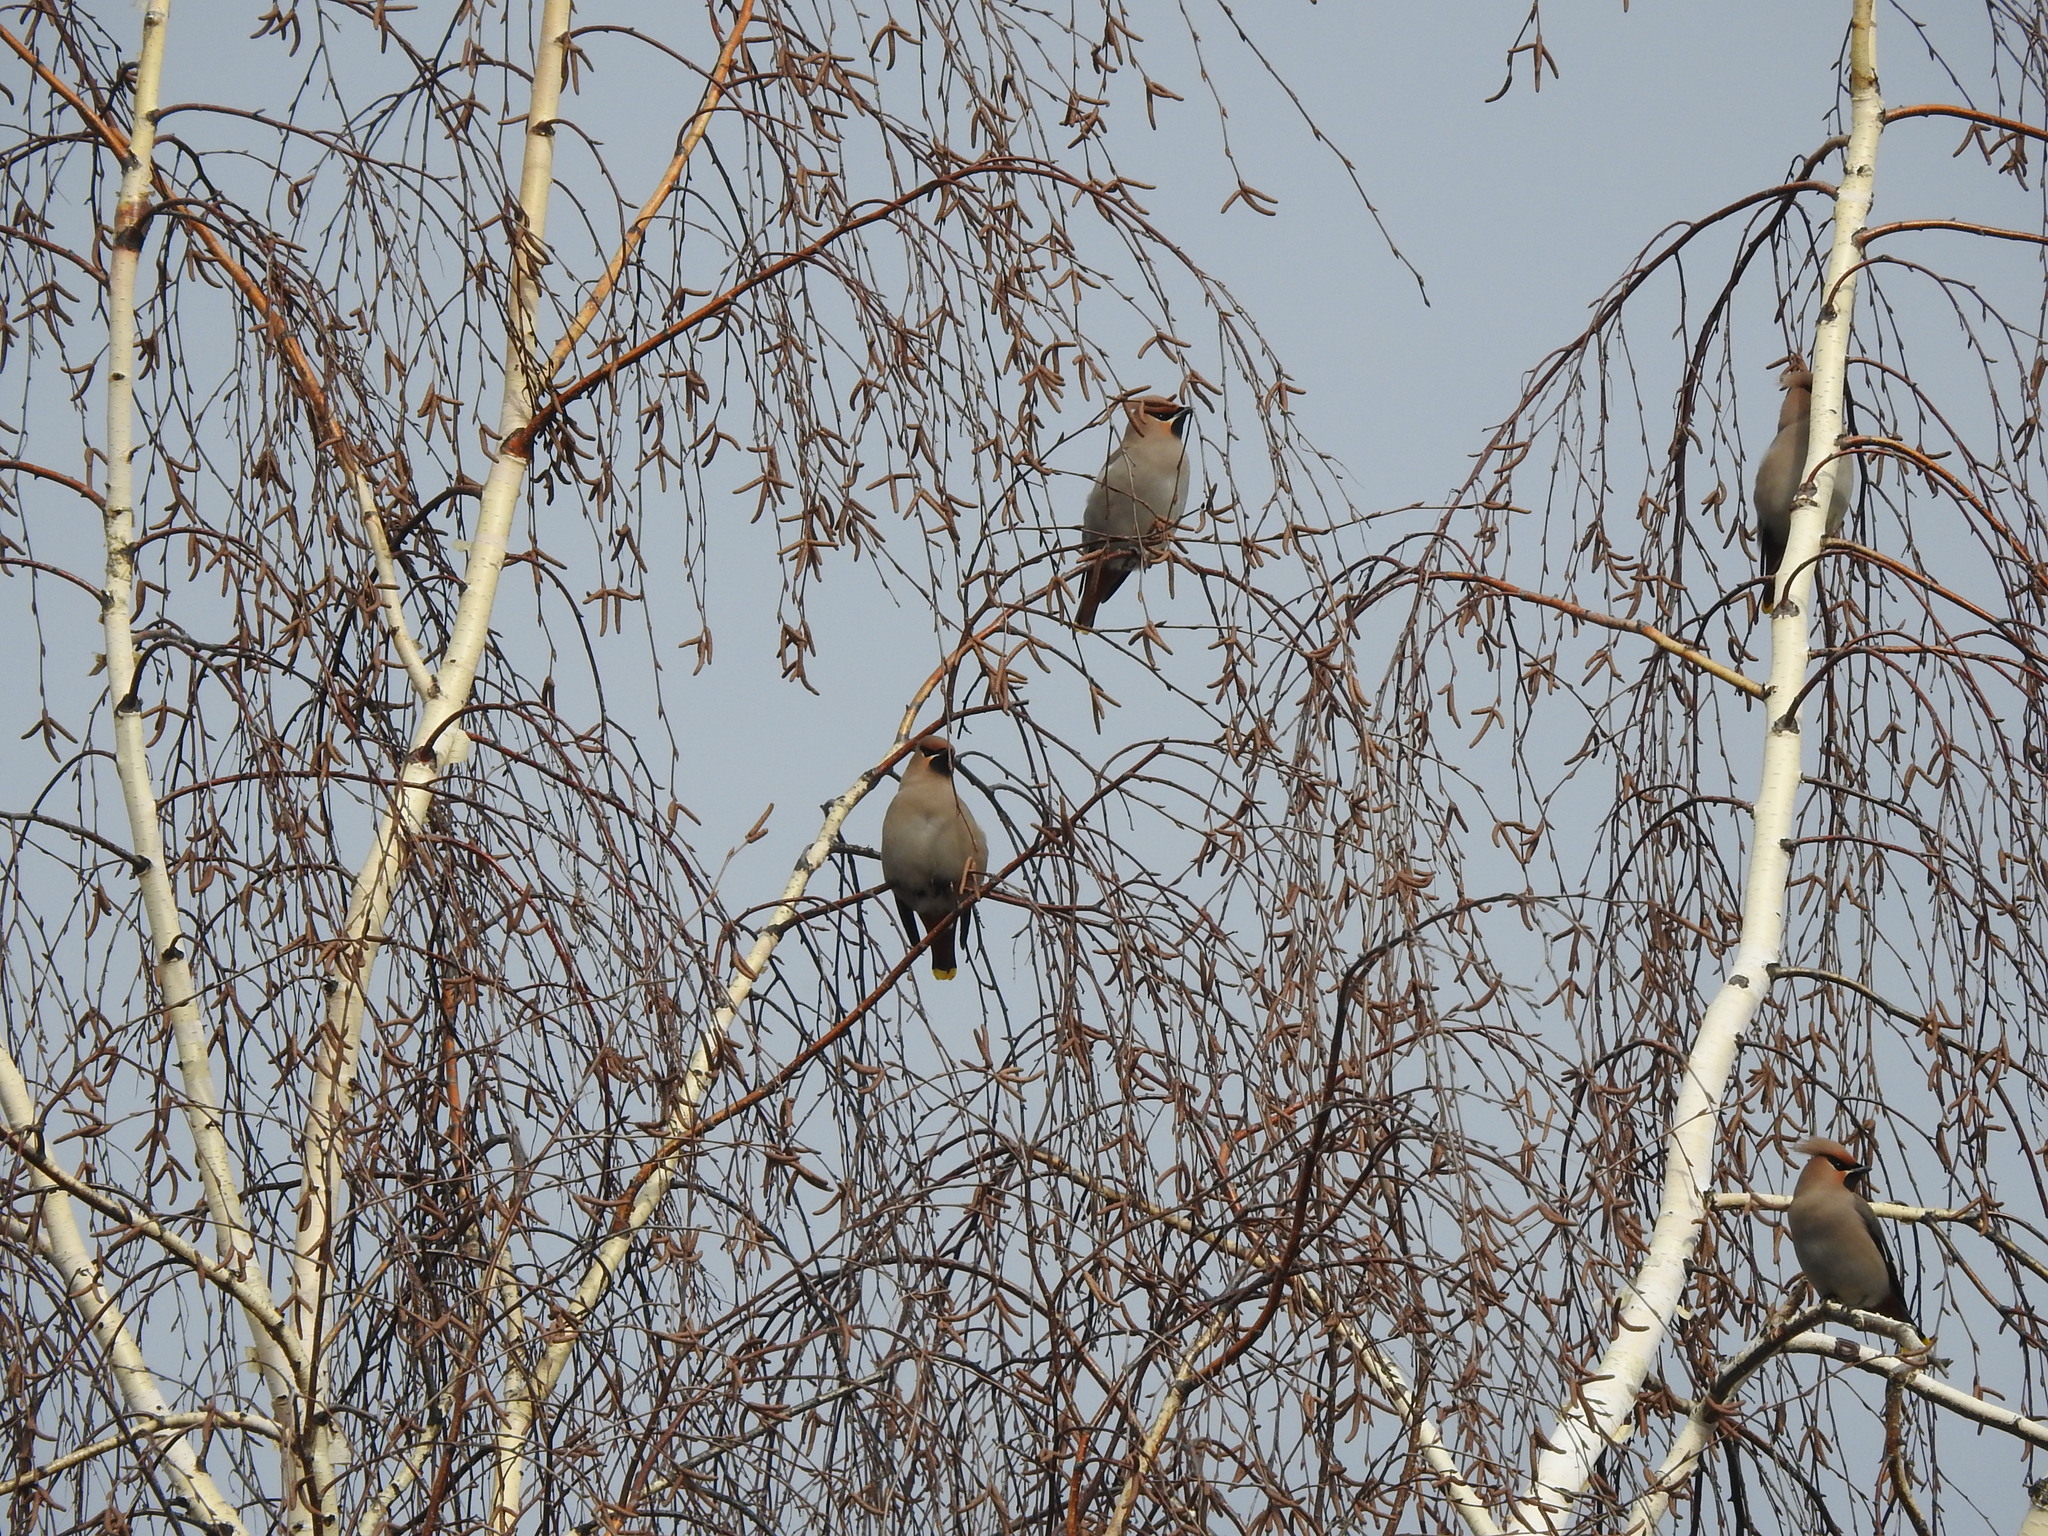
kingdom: Animalia
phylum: Chordata
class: Aves
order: Passeriformes
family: Bombycillidae
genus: Bombycilla
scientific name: Bombycilla garrulus
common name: Bohemian waxwing
